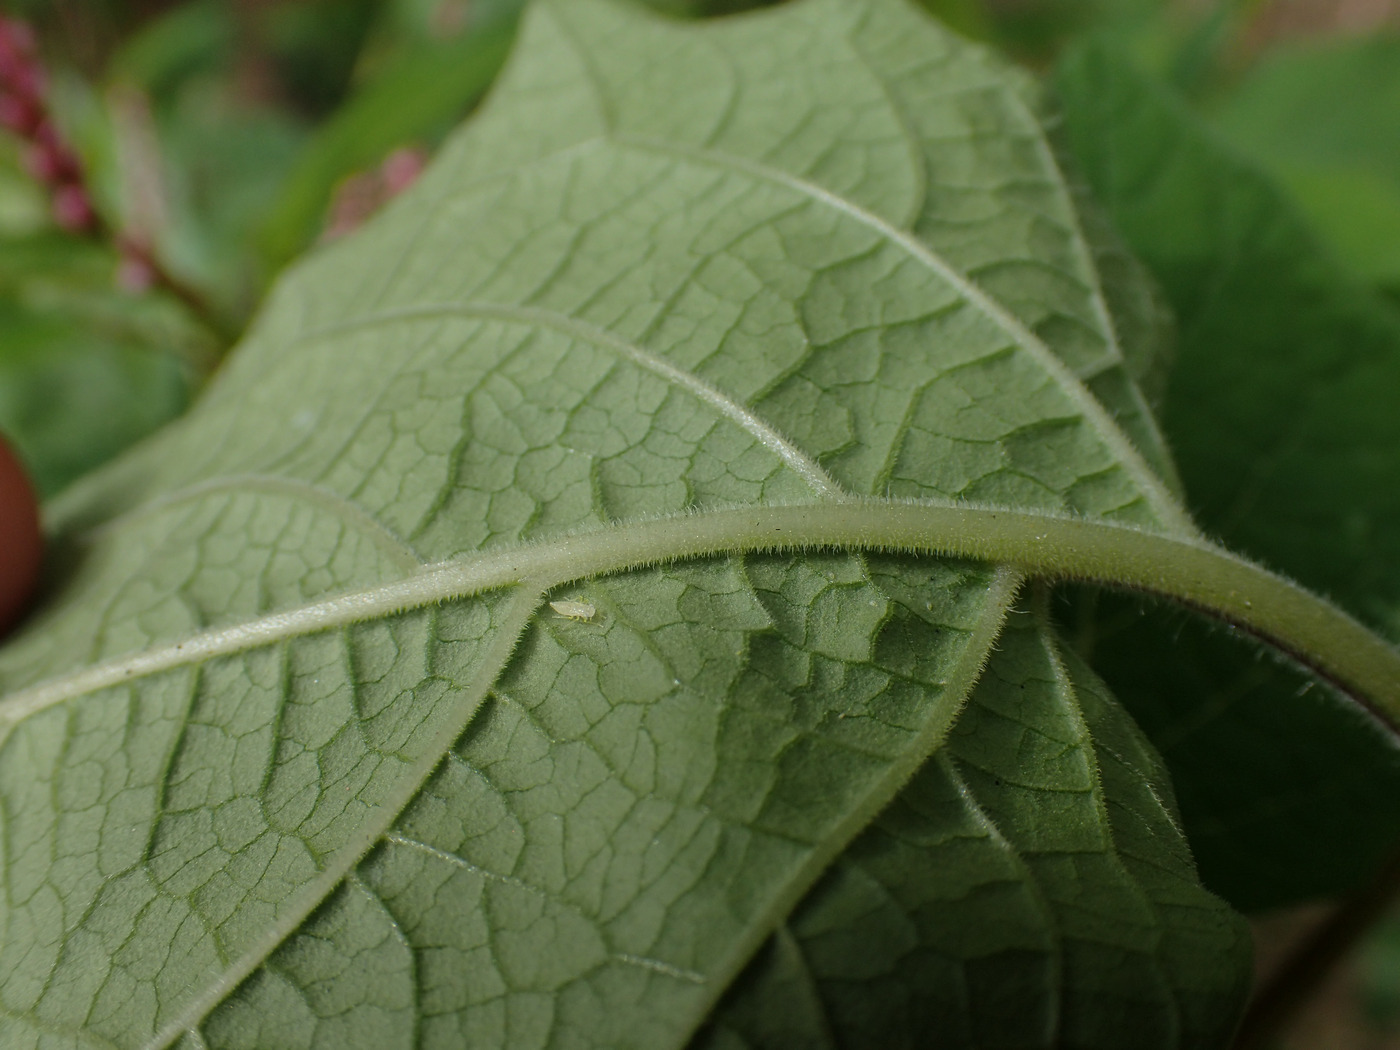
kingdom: Plantae
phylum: Tracheophyta
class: Magnoliopsida
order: Solanales
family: Solanaceae
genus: Physalis
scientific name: Physalis grisea
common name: Dwarf cape-gooseberry
